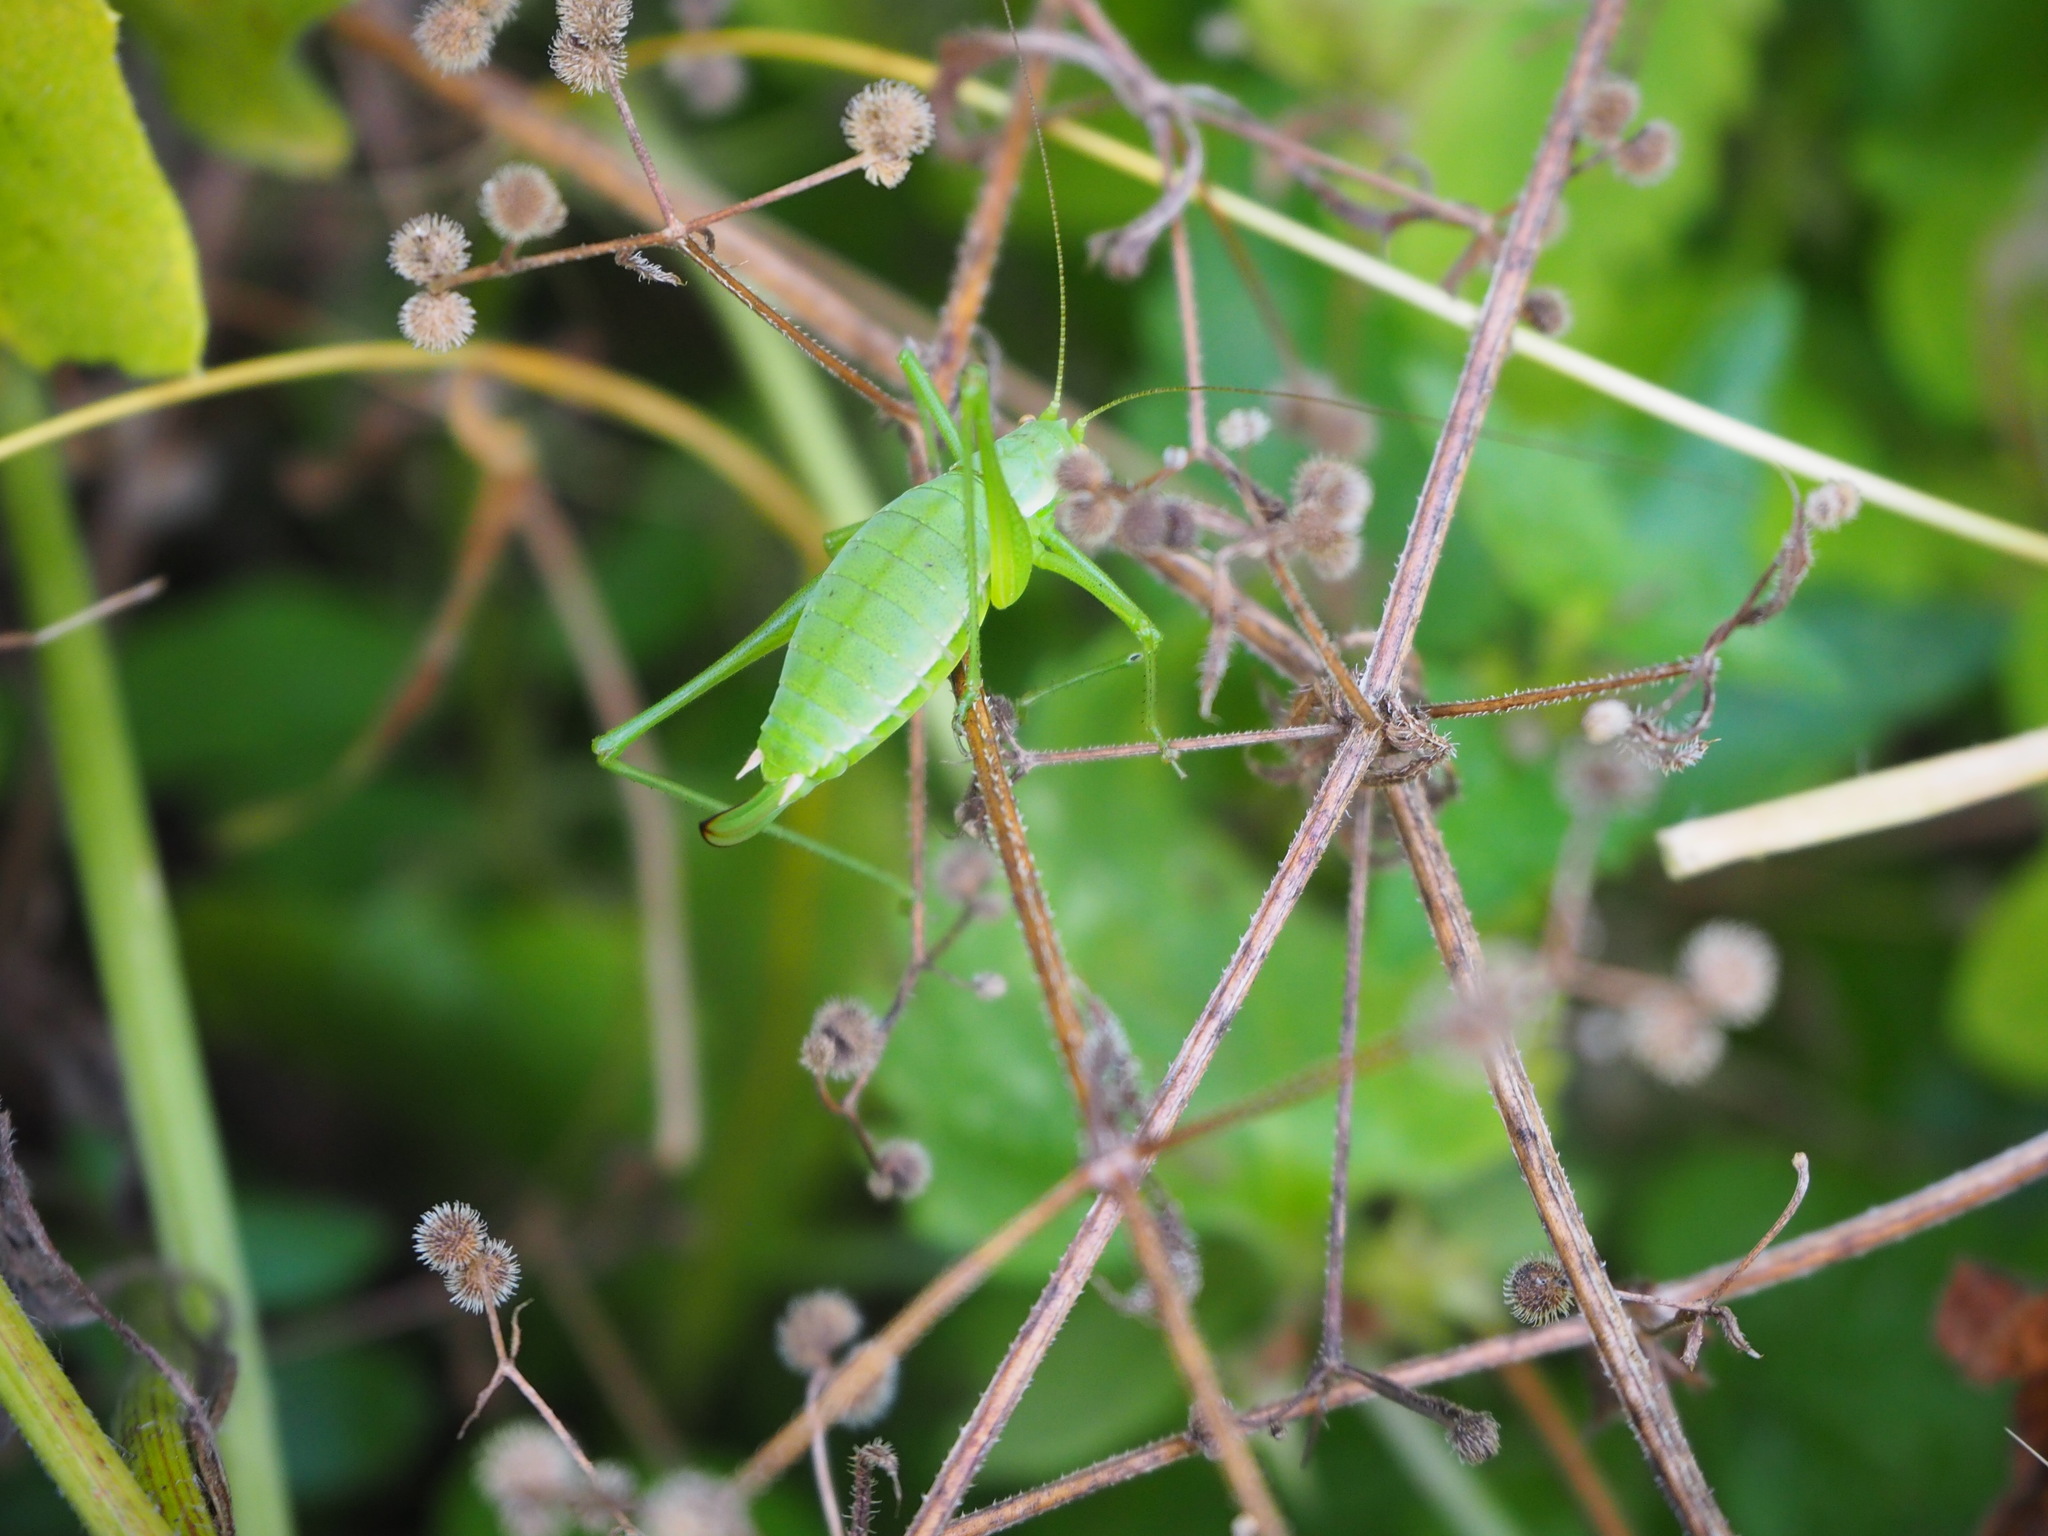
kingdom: Animalia
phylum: Arthropoda
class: Insecta
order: Orthoptera
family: Tettigoniidae
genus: Leptophyes
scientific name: Leptophyes boscii
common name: Balkan speckled bush-cricket
